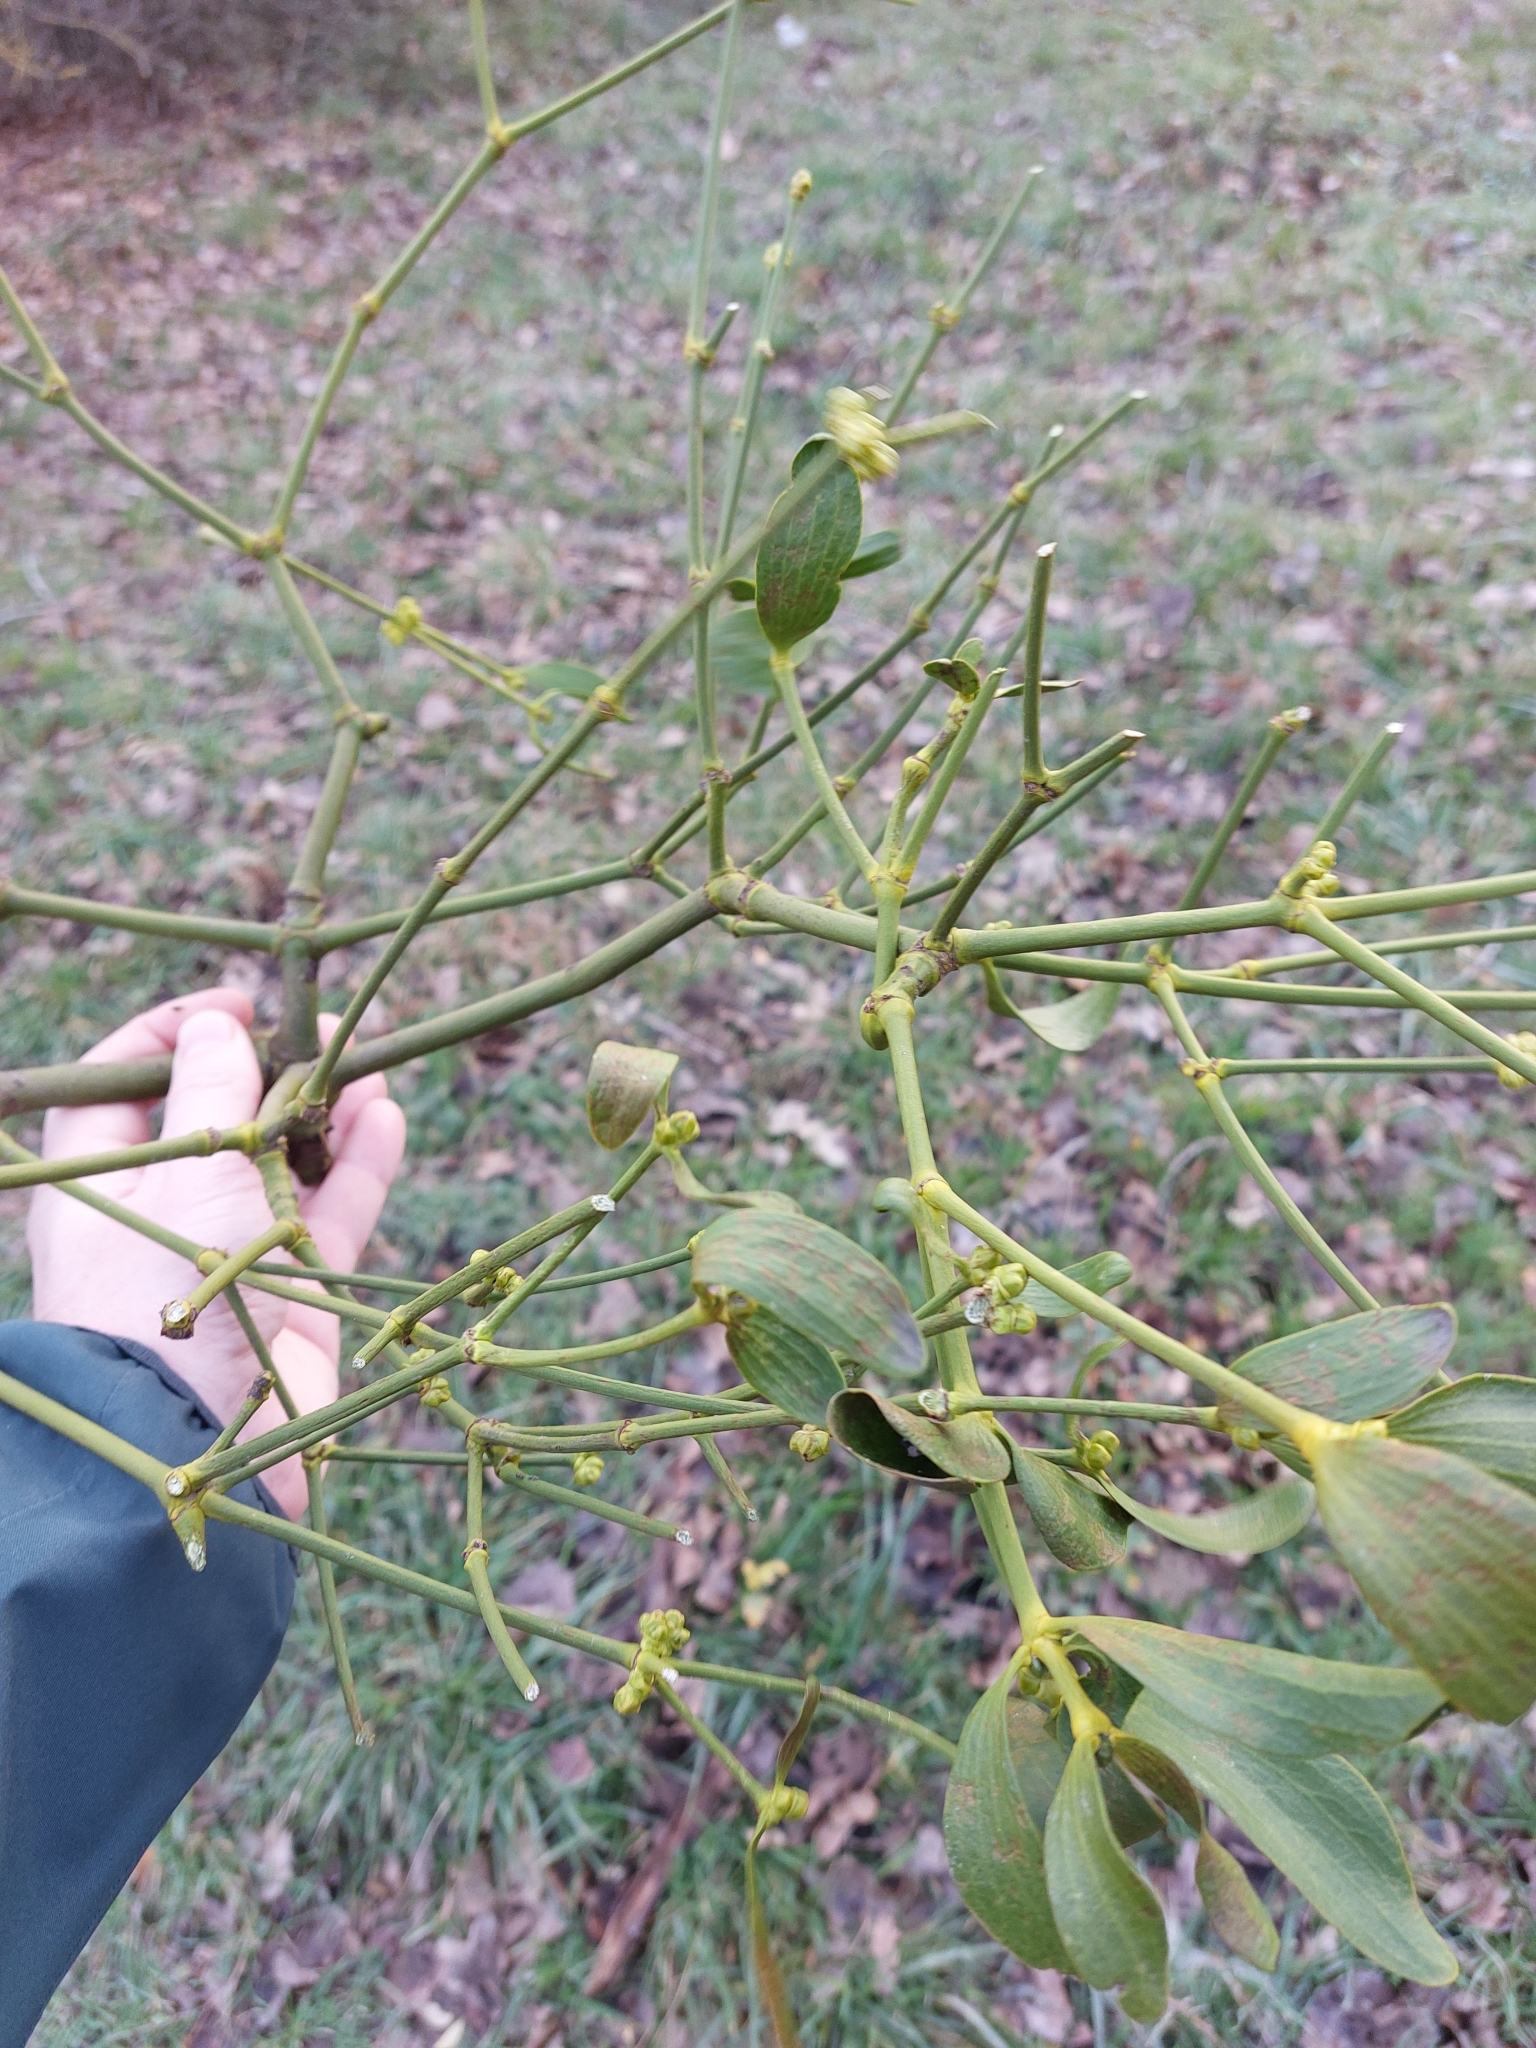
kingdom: Plantae
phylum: Tracheophyta
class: Magnoliopsida
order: Santalales
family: Viscaceae
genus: Viscum
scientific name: Viscum album
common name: Mistletoe
